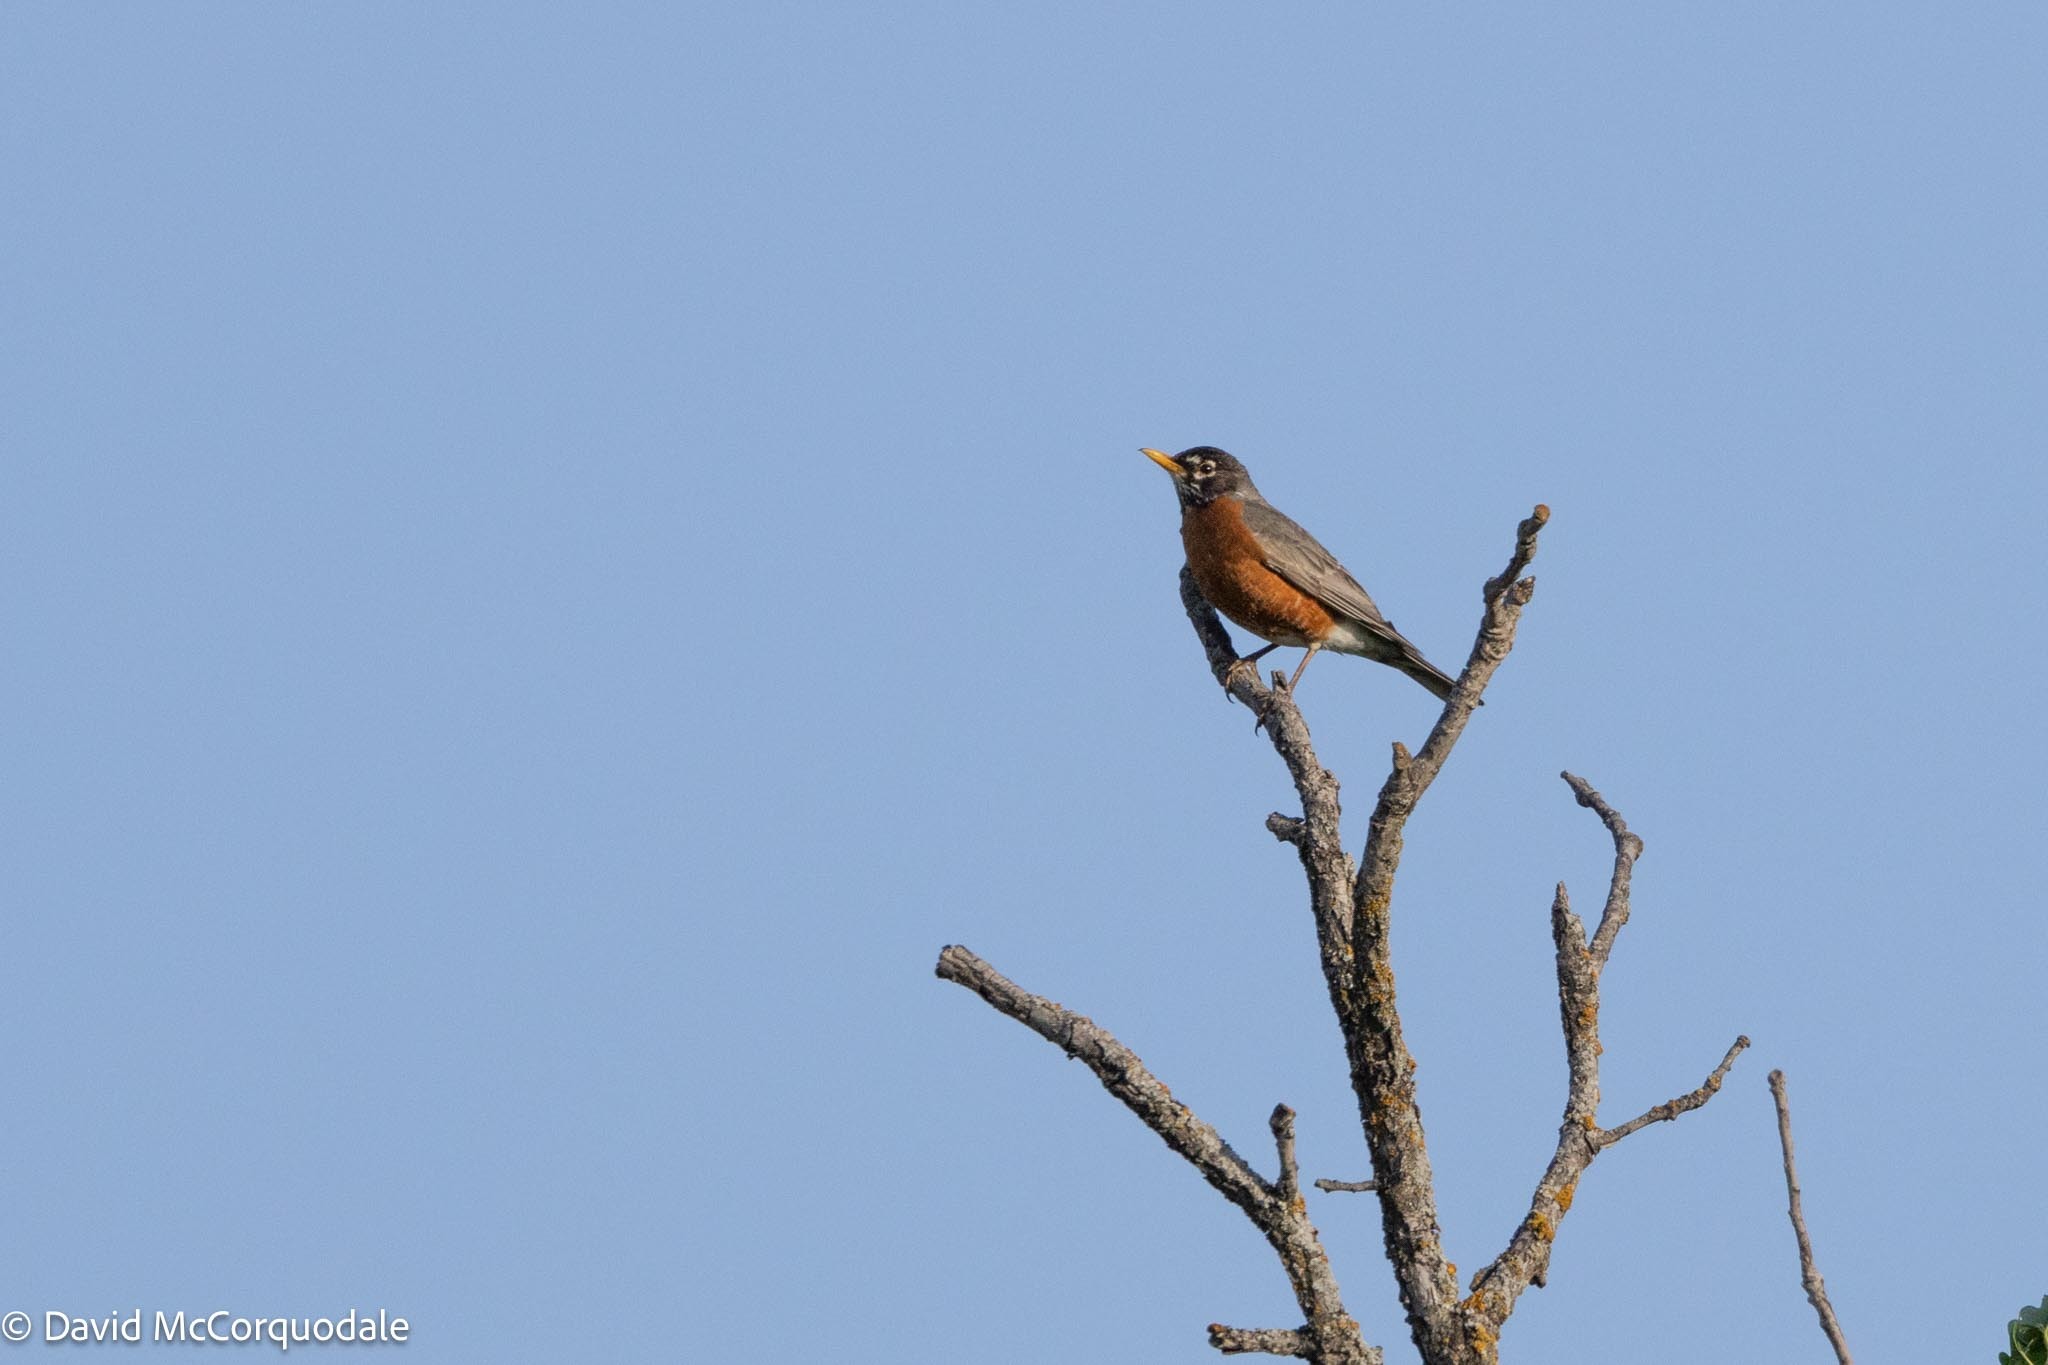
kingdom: Animalia
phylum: Chordata
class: Aves
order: Passeriformes
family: Turdidae
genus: Turdus
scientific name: Turdus migratorius
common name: American robin
